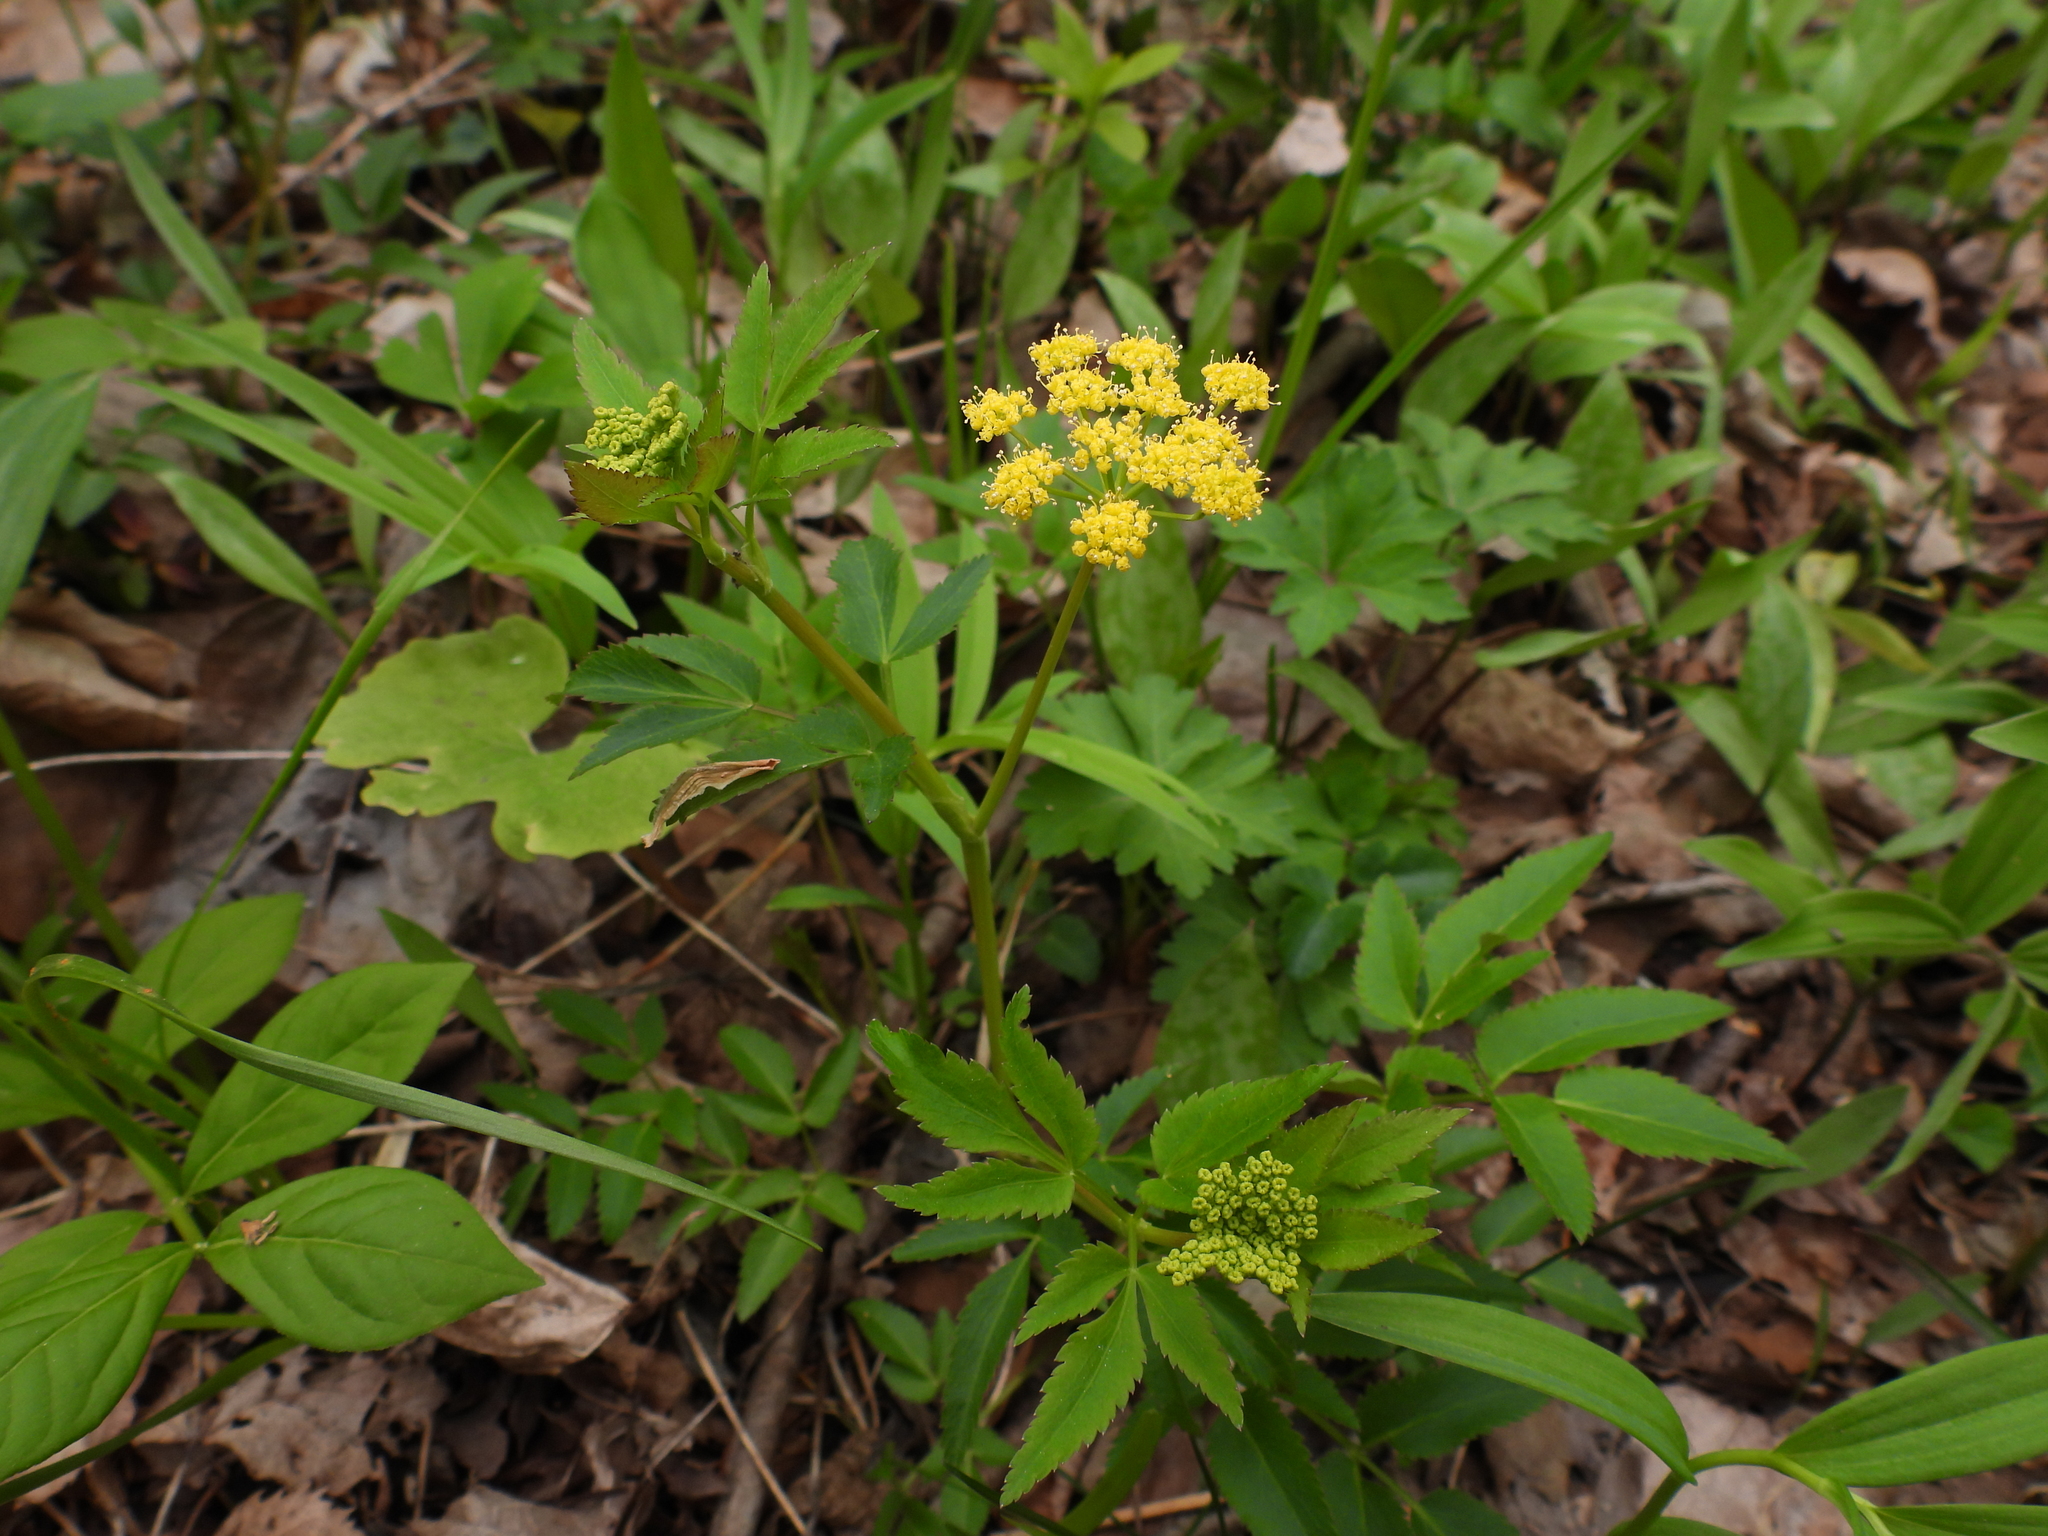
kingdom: Plantae
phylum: Tracheophyta
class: Magnoliopsida
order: Apiales
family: Apiaceae
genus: Zizia
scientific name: Zizia aurea
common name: Golden alexanders
